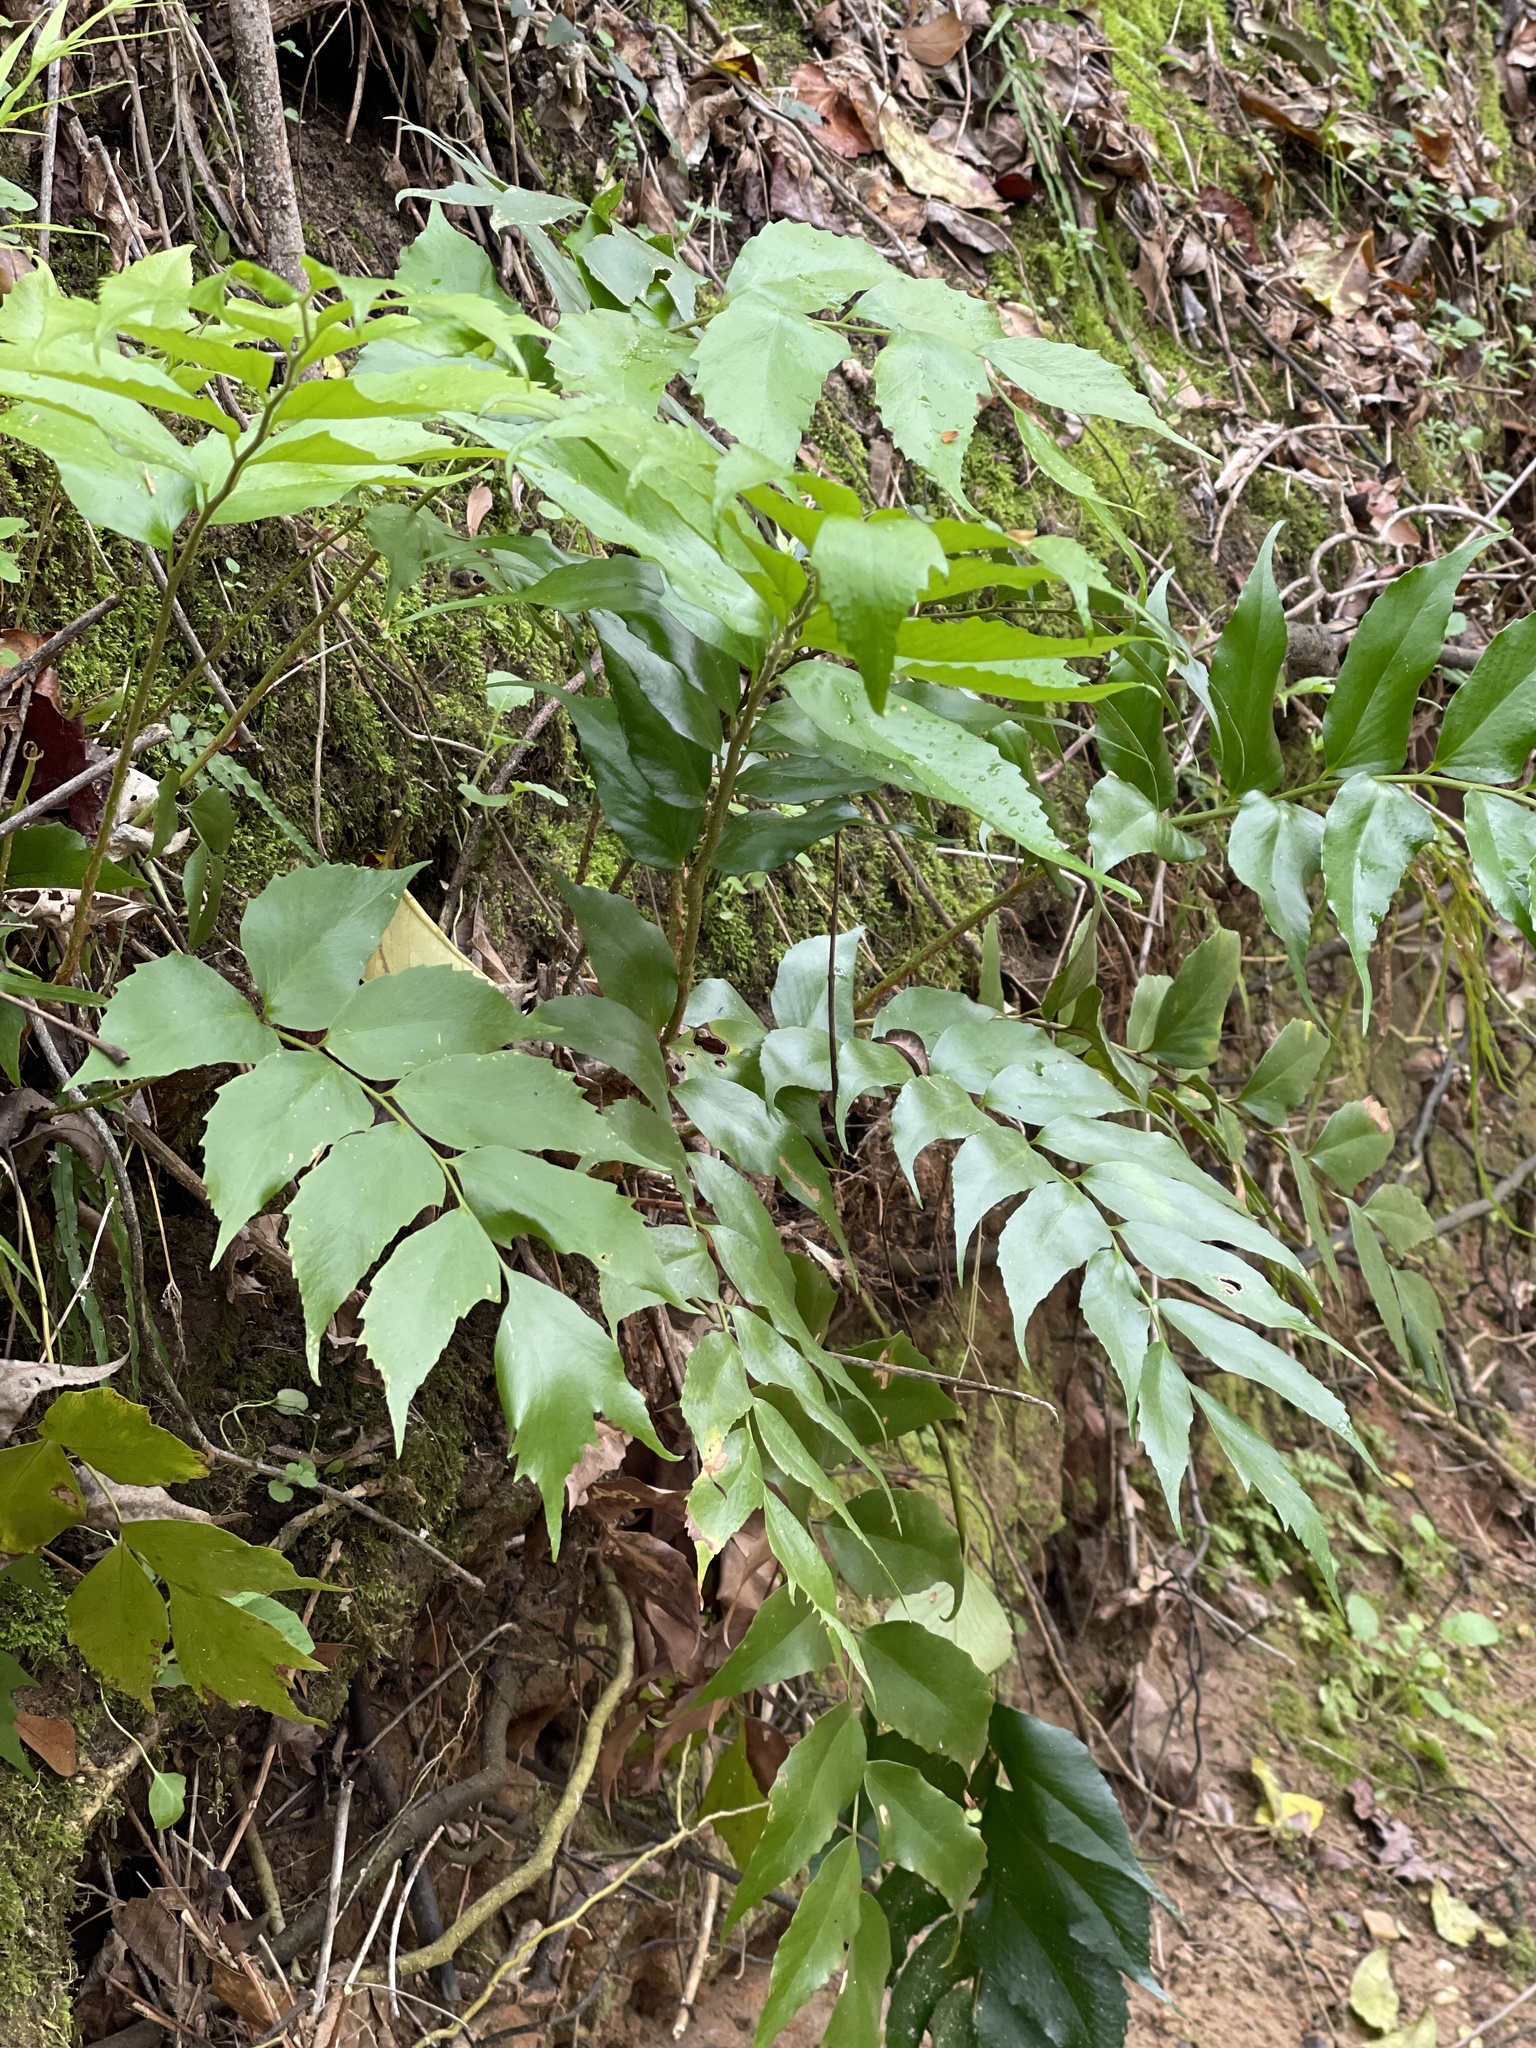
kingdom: Plantae
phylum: Tracheophyta
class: Polypodiopsida
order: Polypodiales
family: Dryopteridaceae
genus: Cyrtomium
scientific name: Cyrtomium falcatum
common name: House holly-fern
